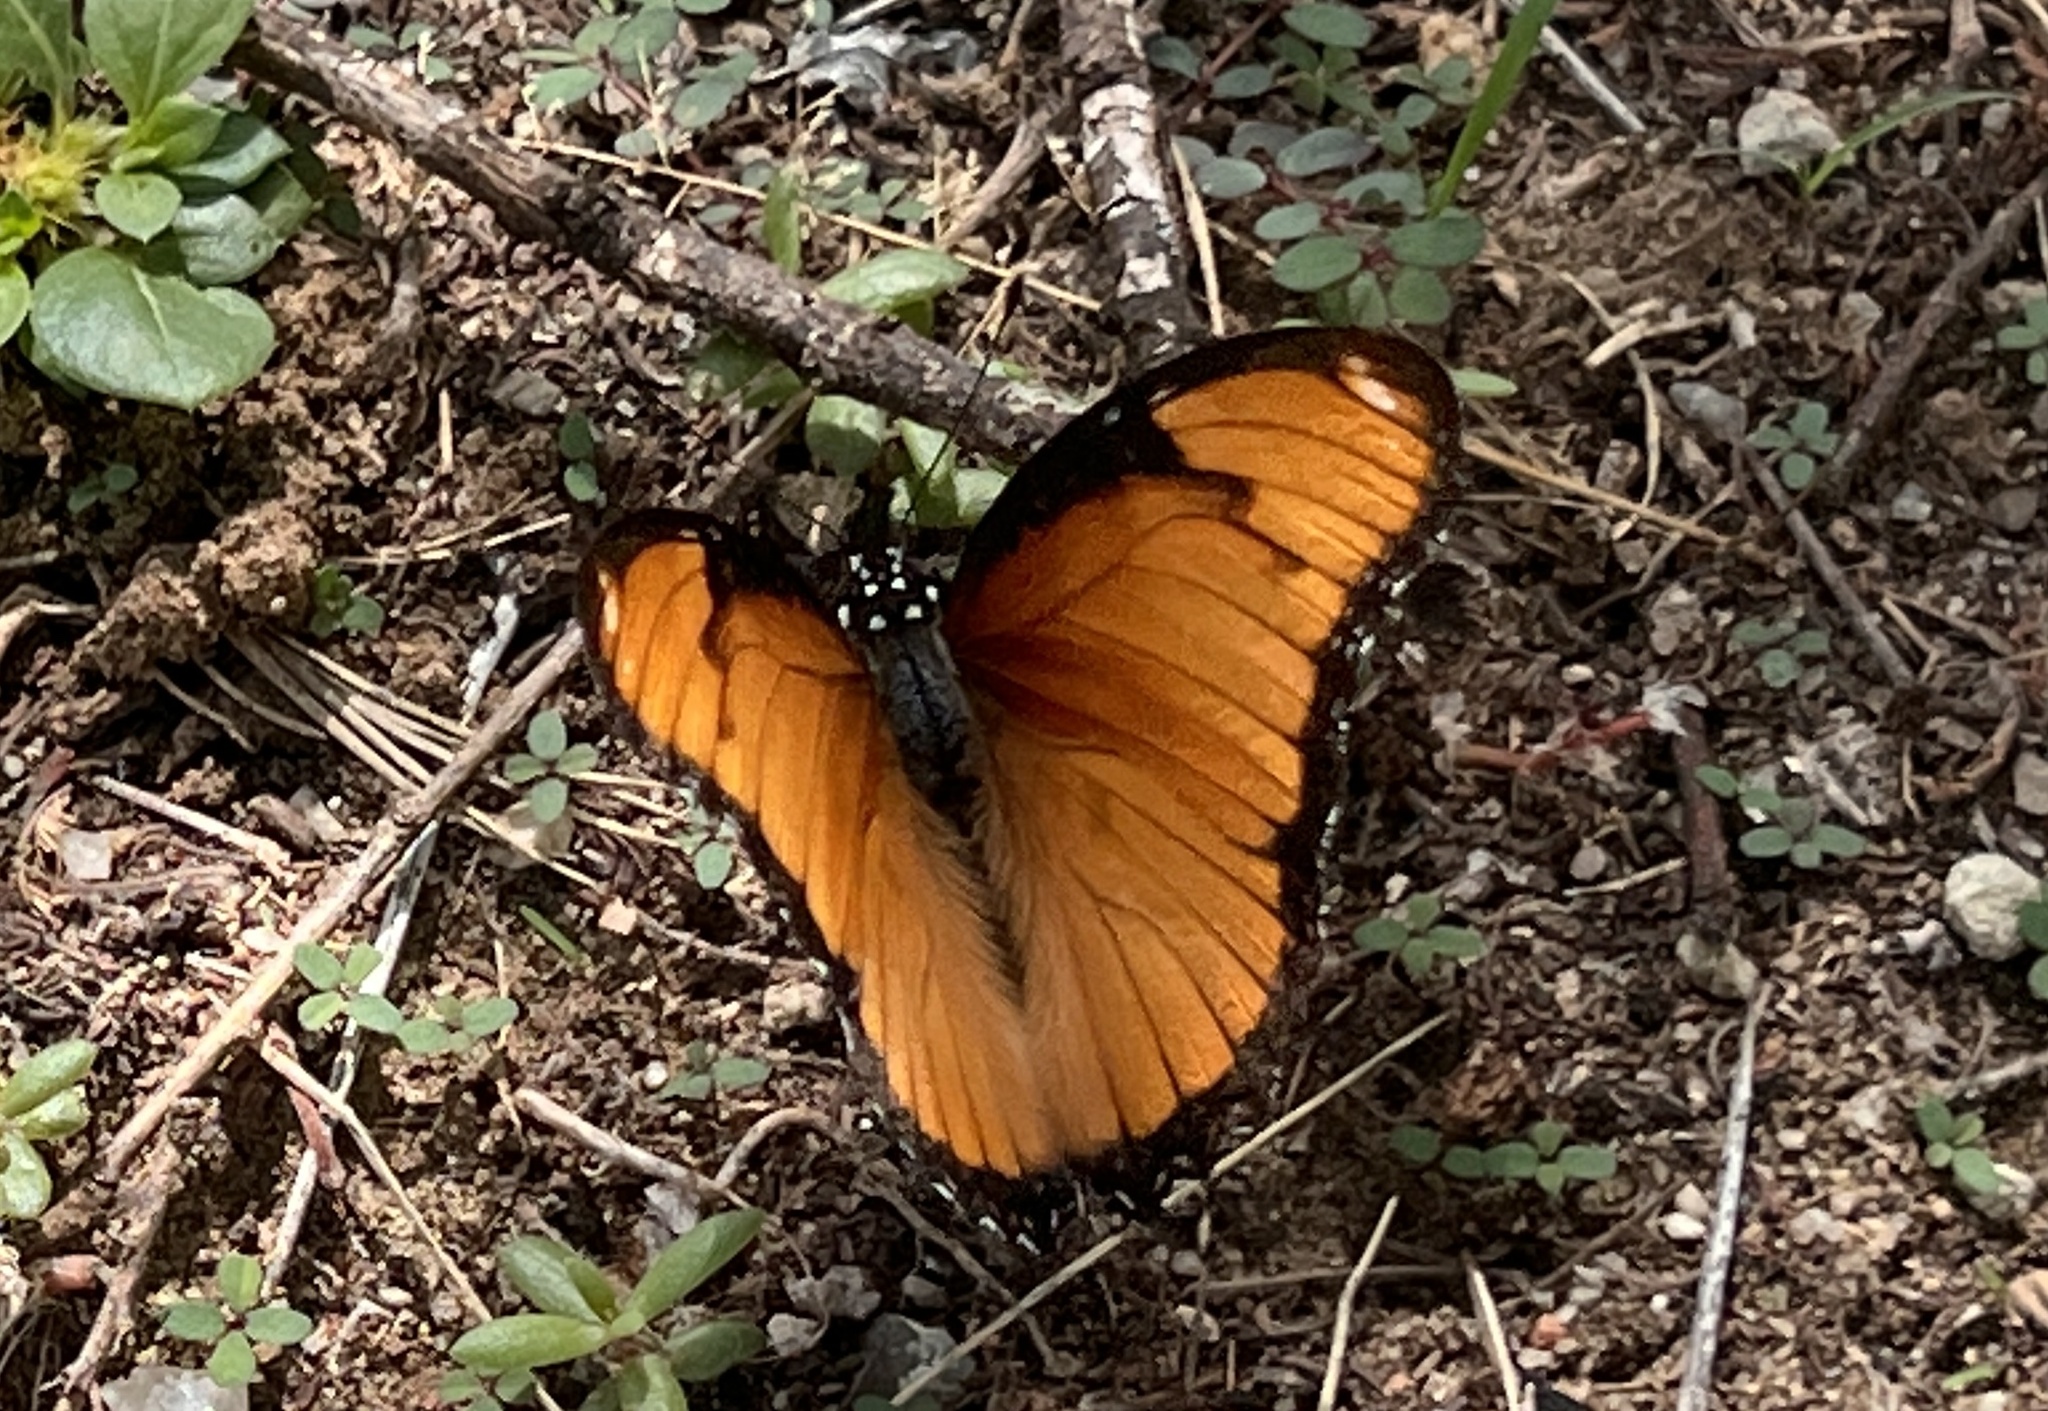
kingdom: Animalia
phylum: Arthropoda
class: Insecta
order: Lepidoptera
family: Nymphalidae
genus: Hypolimnas
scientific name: Hypolimnas misippus
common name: False plain tiger
